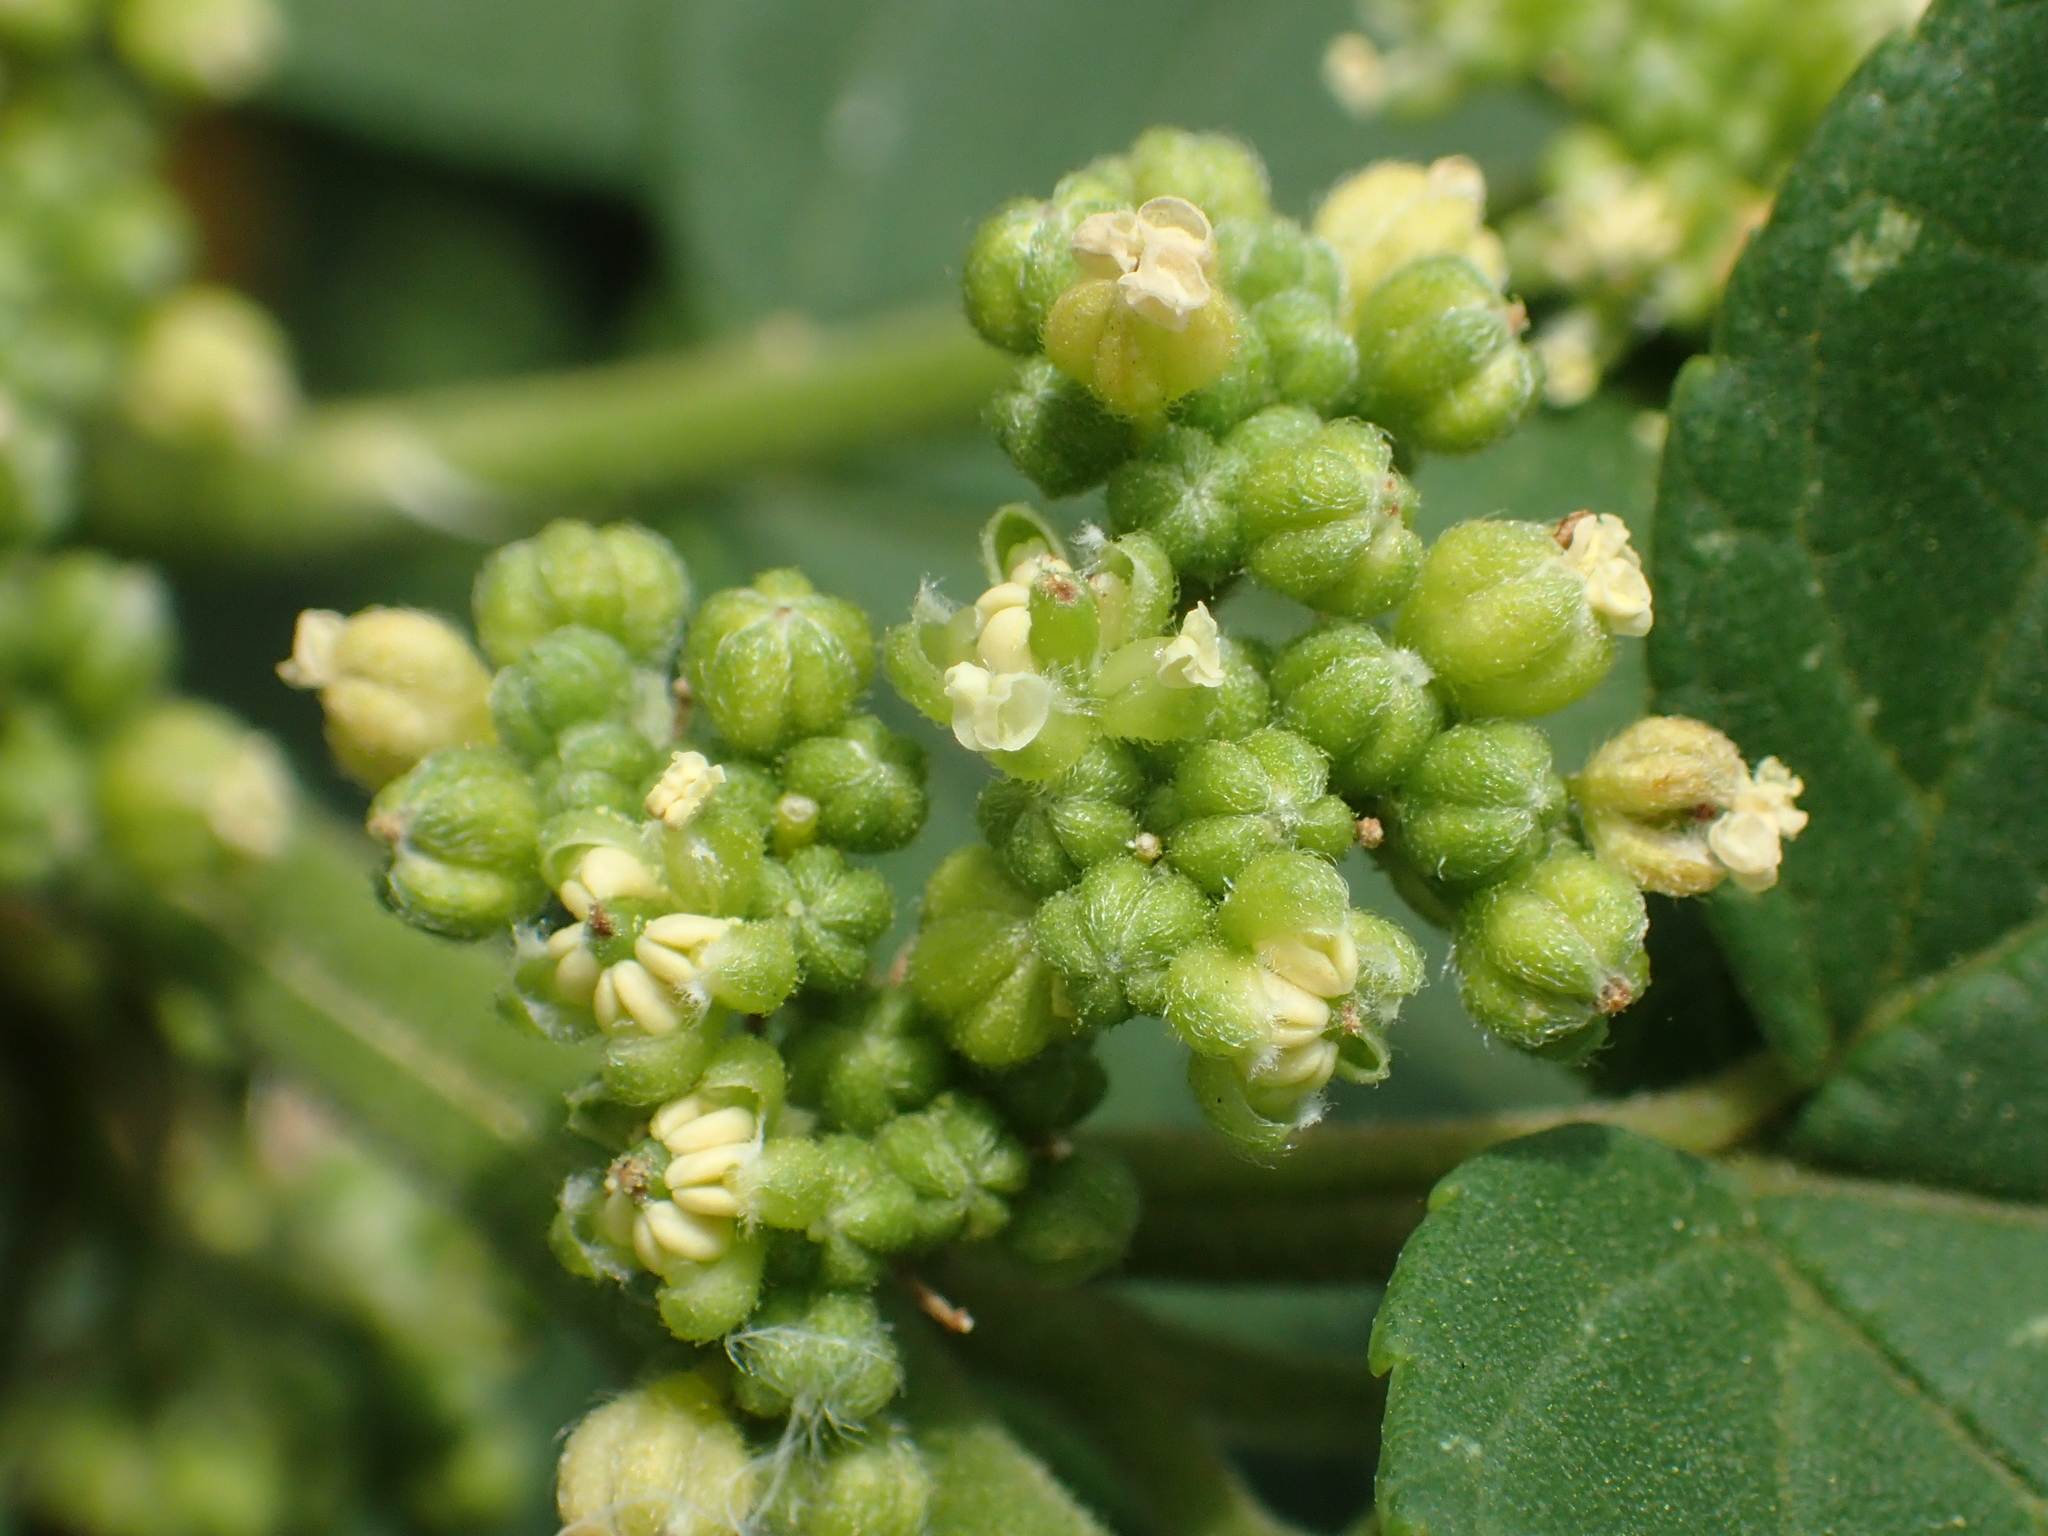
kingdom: Plantae
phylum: Tracheophyta
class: Magnoliopsida
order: Rosales
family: Cannabaceae
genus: Trema
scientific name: Trema orientale
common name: Indian charcoal tree
